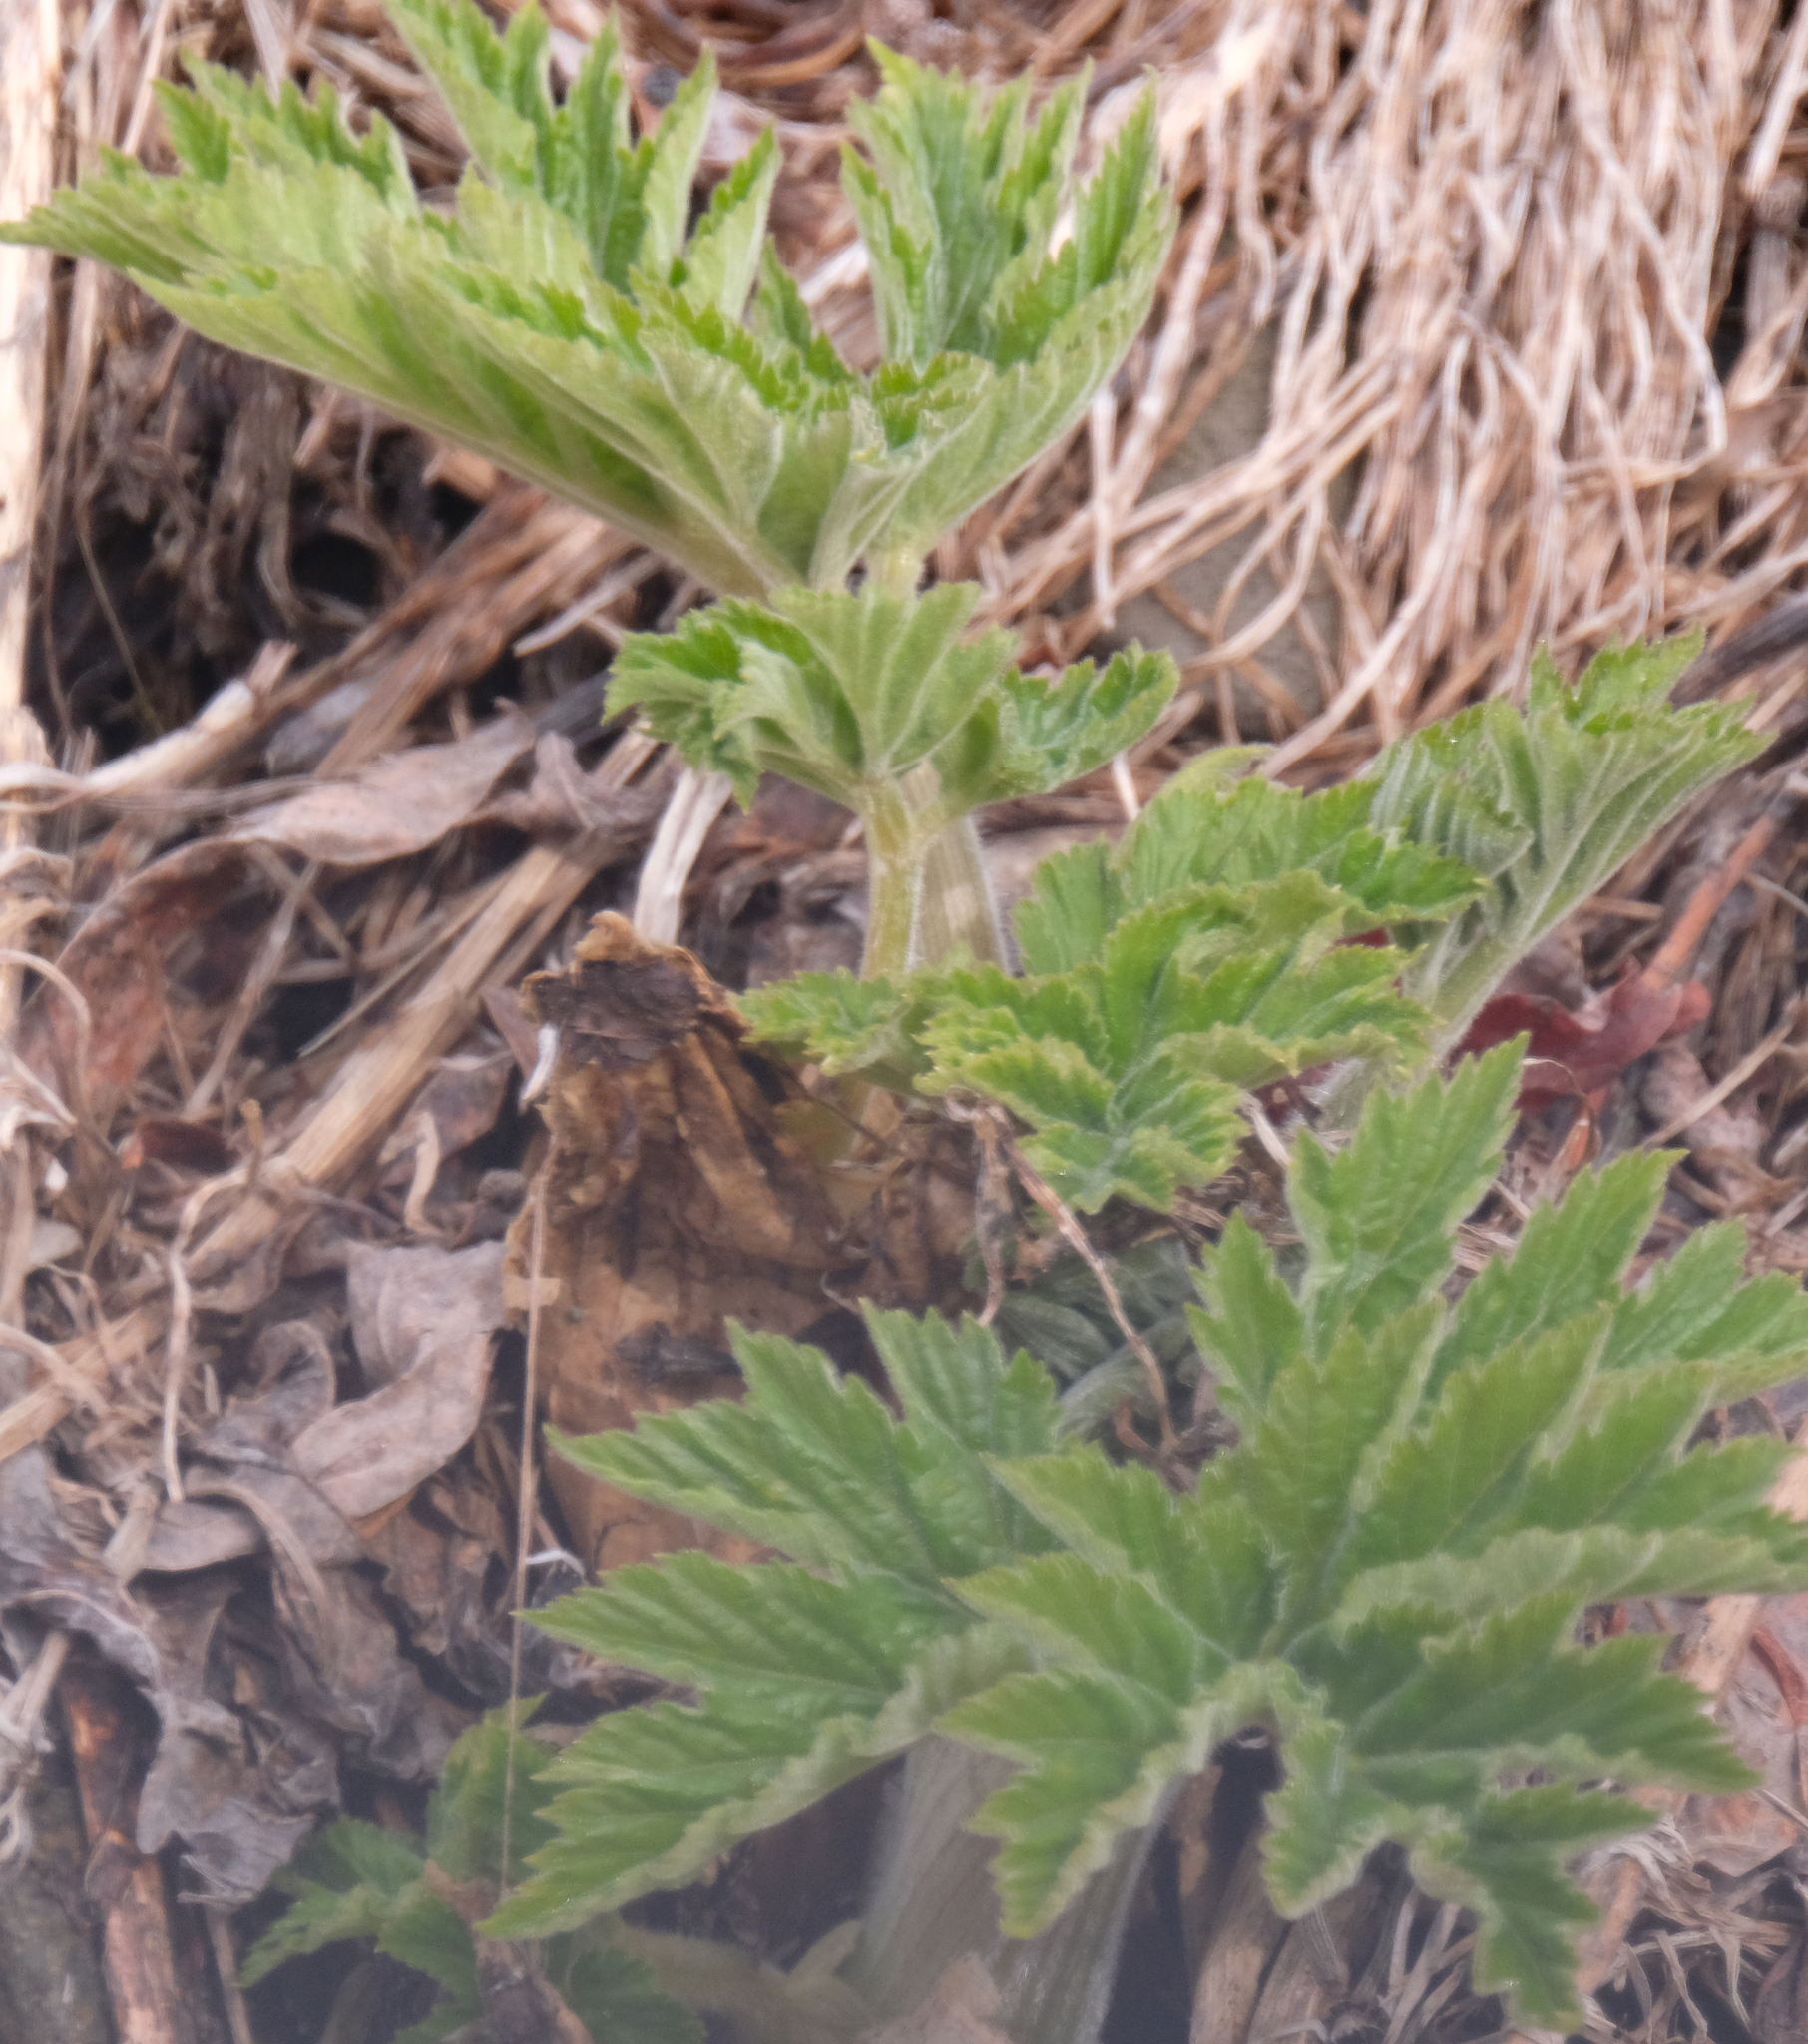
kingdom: Plantae
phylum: Tracheophyta
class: Magnoliopsida
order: Apiales
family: Apiaceae
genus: Heracleum
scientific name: Heracleum maximum
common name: American cow parsnip
